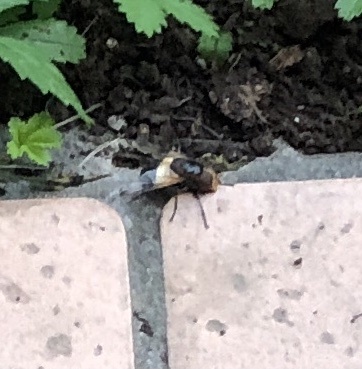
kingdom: Animalia
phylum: Arthropoda
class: Insecta
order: Diptera
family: Syrphidae
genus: Volucella
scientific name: Volucella pellucens
